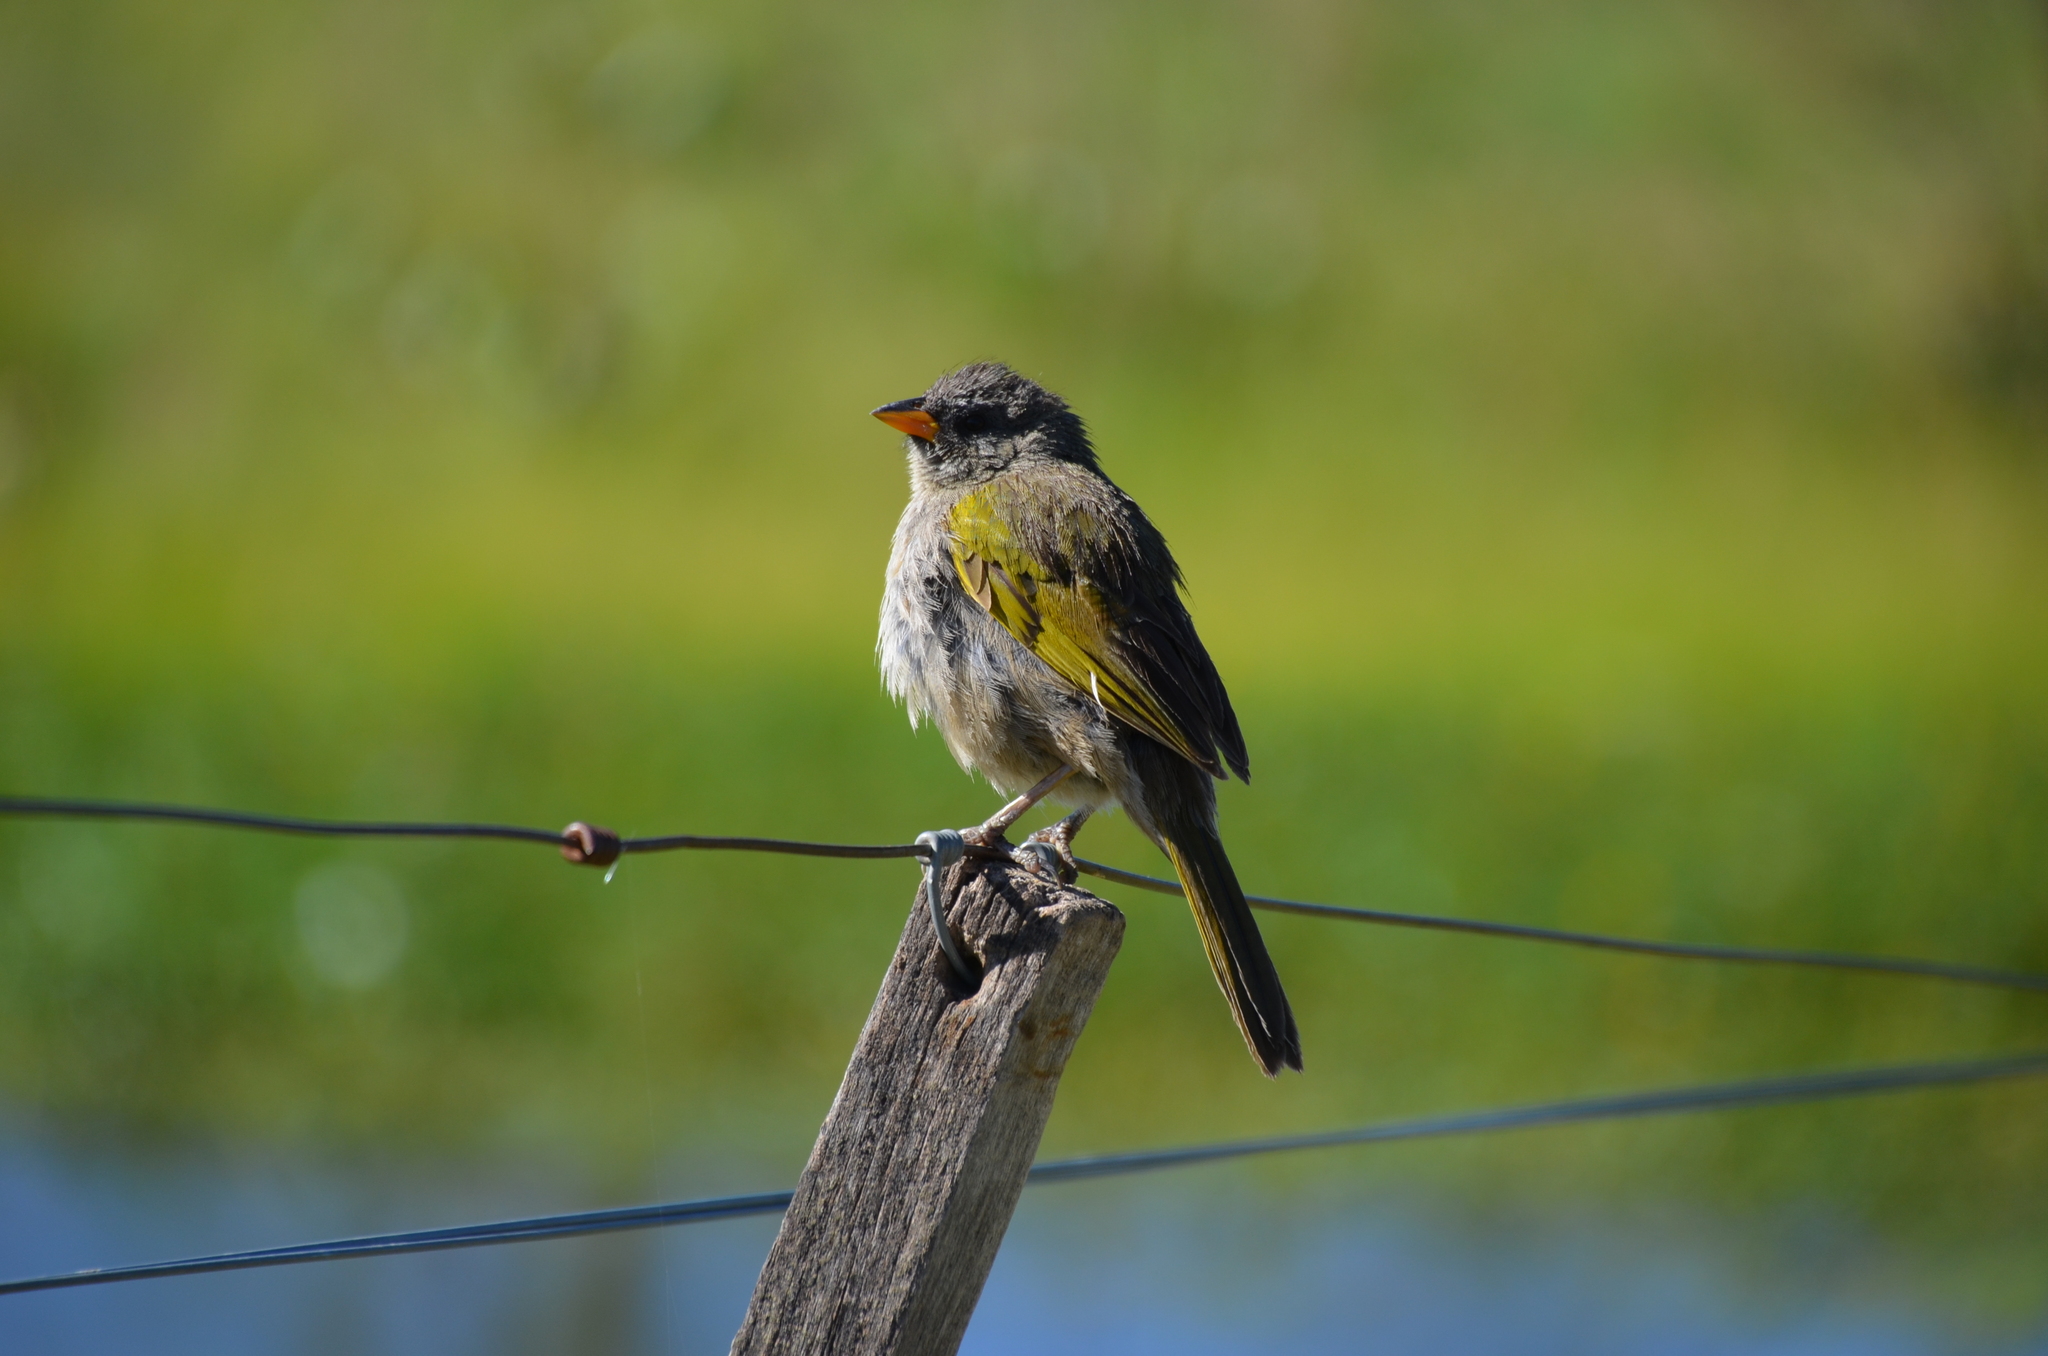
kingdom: Animalia
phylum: Chordata
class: Aves
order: Passeriformes
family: Thraupidae
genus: Embernagra
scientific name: Embernagra platensis
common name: Pampa finch
